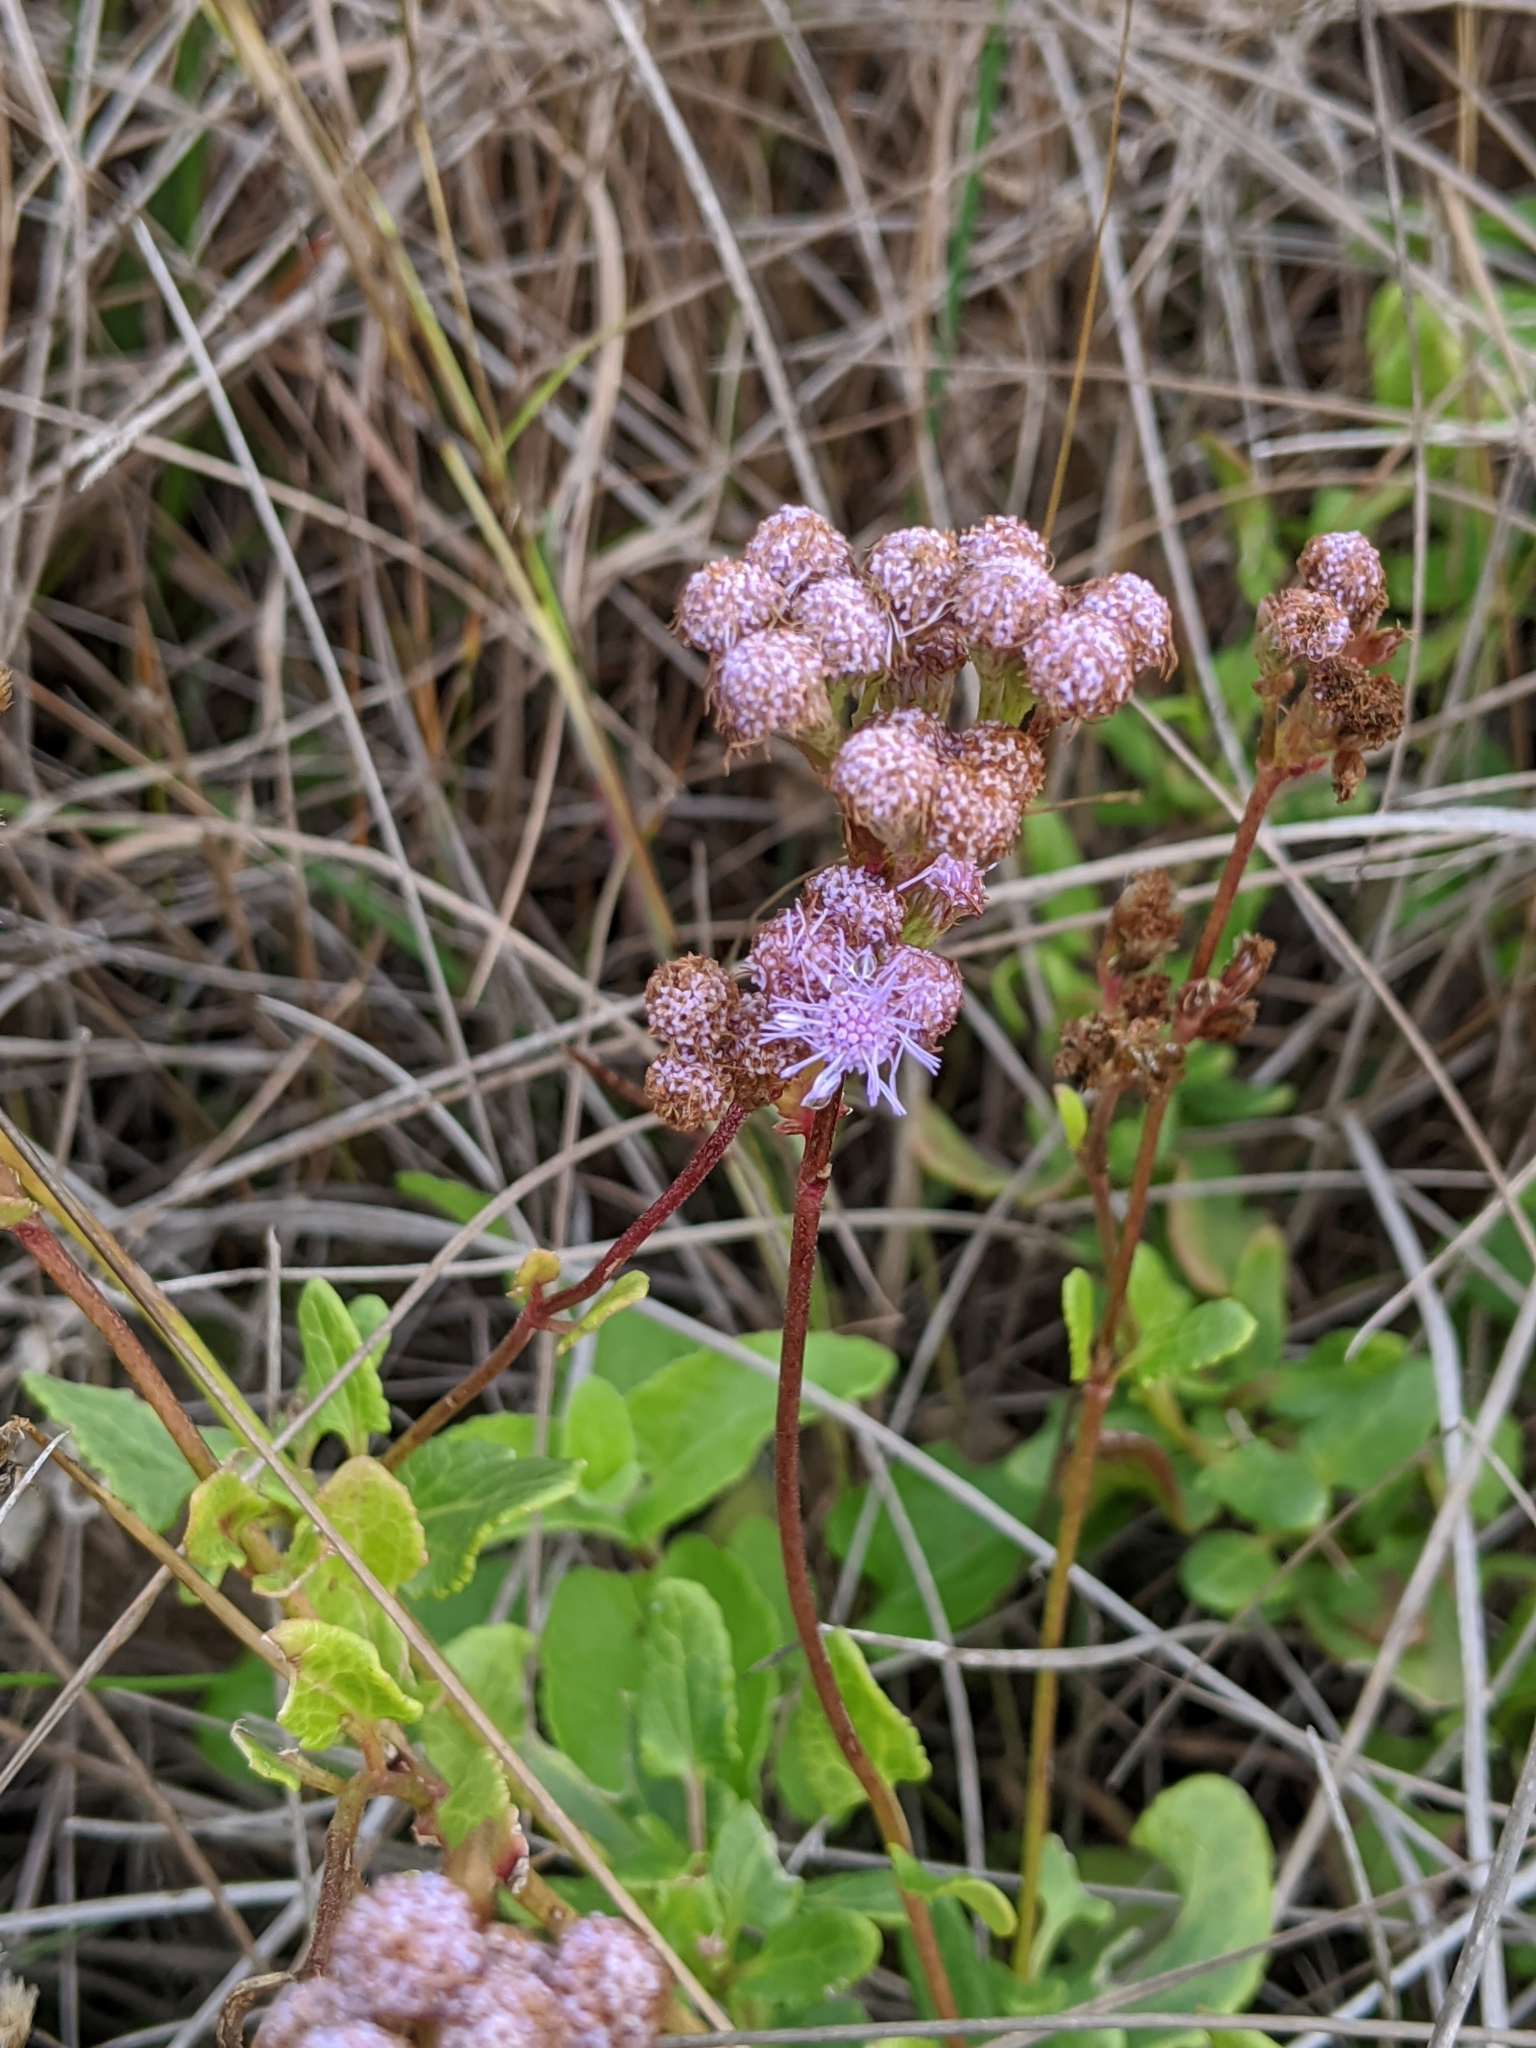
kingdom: Plantae
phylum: Tracheophyta
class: Magnoliopsida
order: Asterales
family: Asteraceae
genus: Conoclinium
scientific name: Conoclinium betonicifolium
